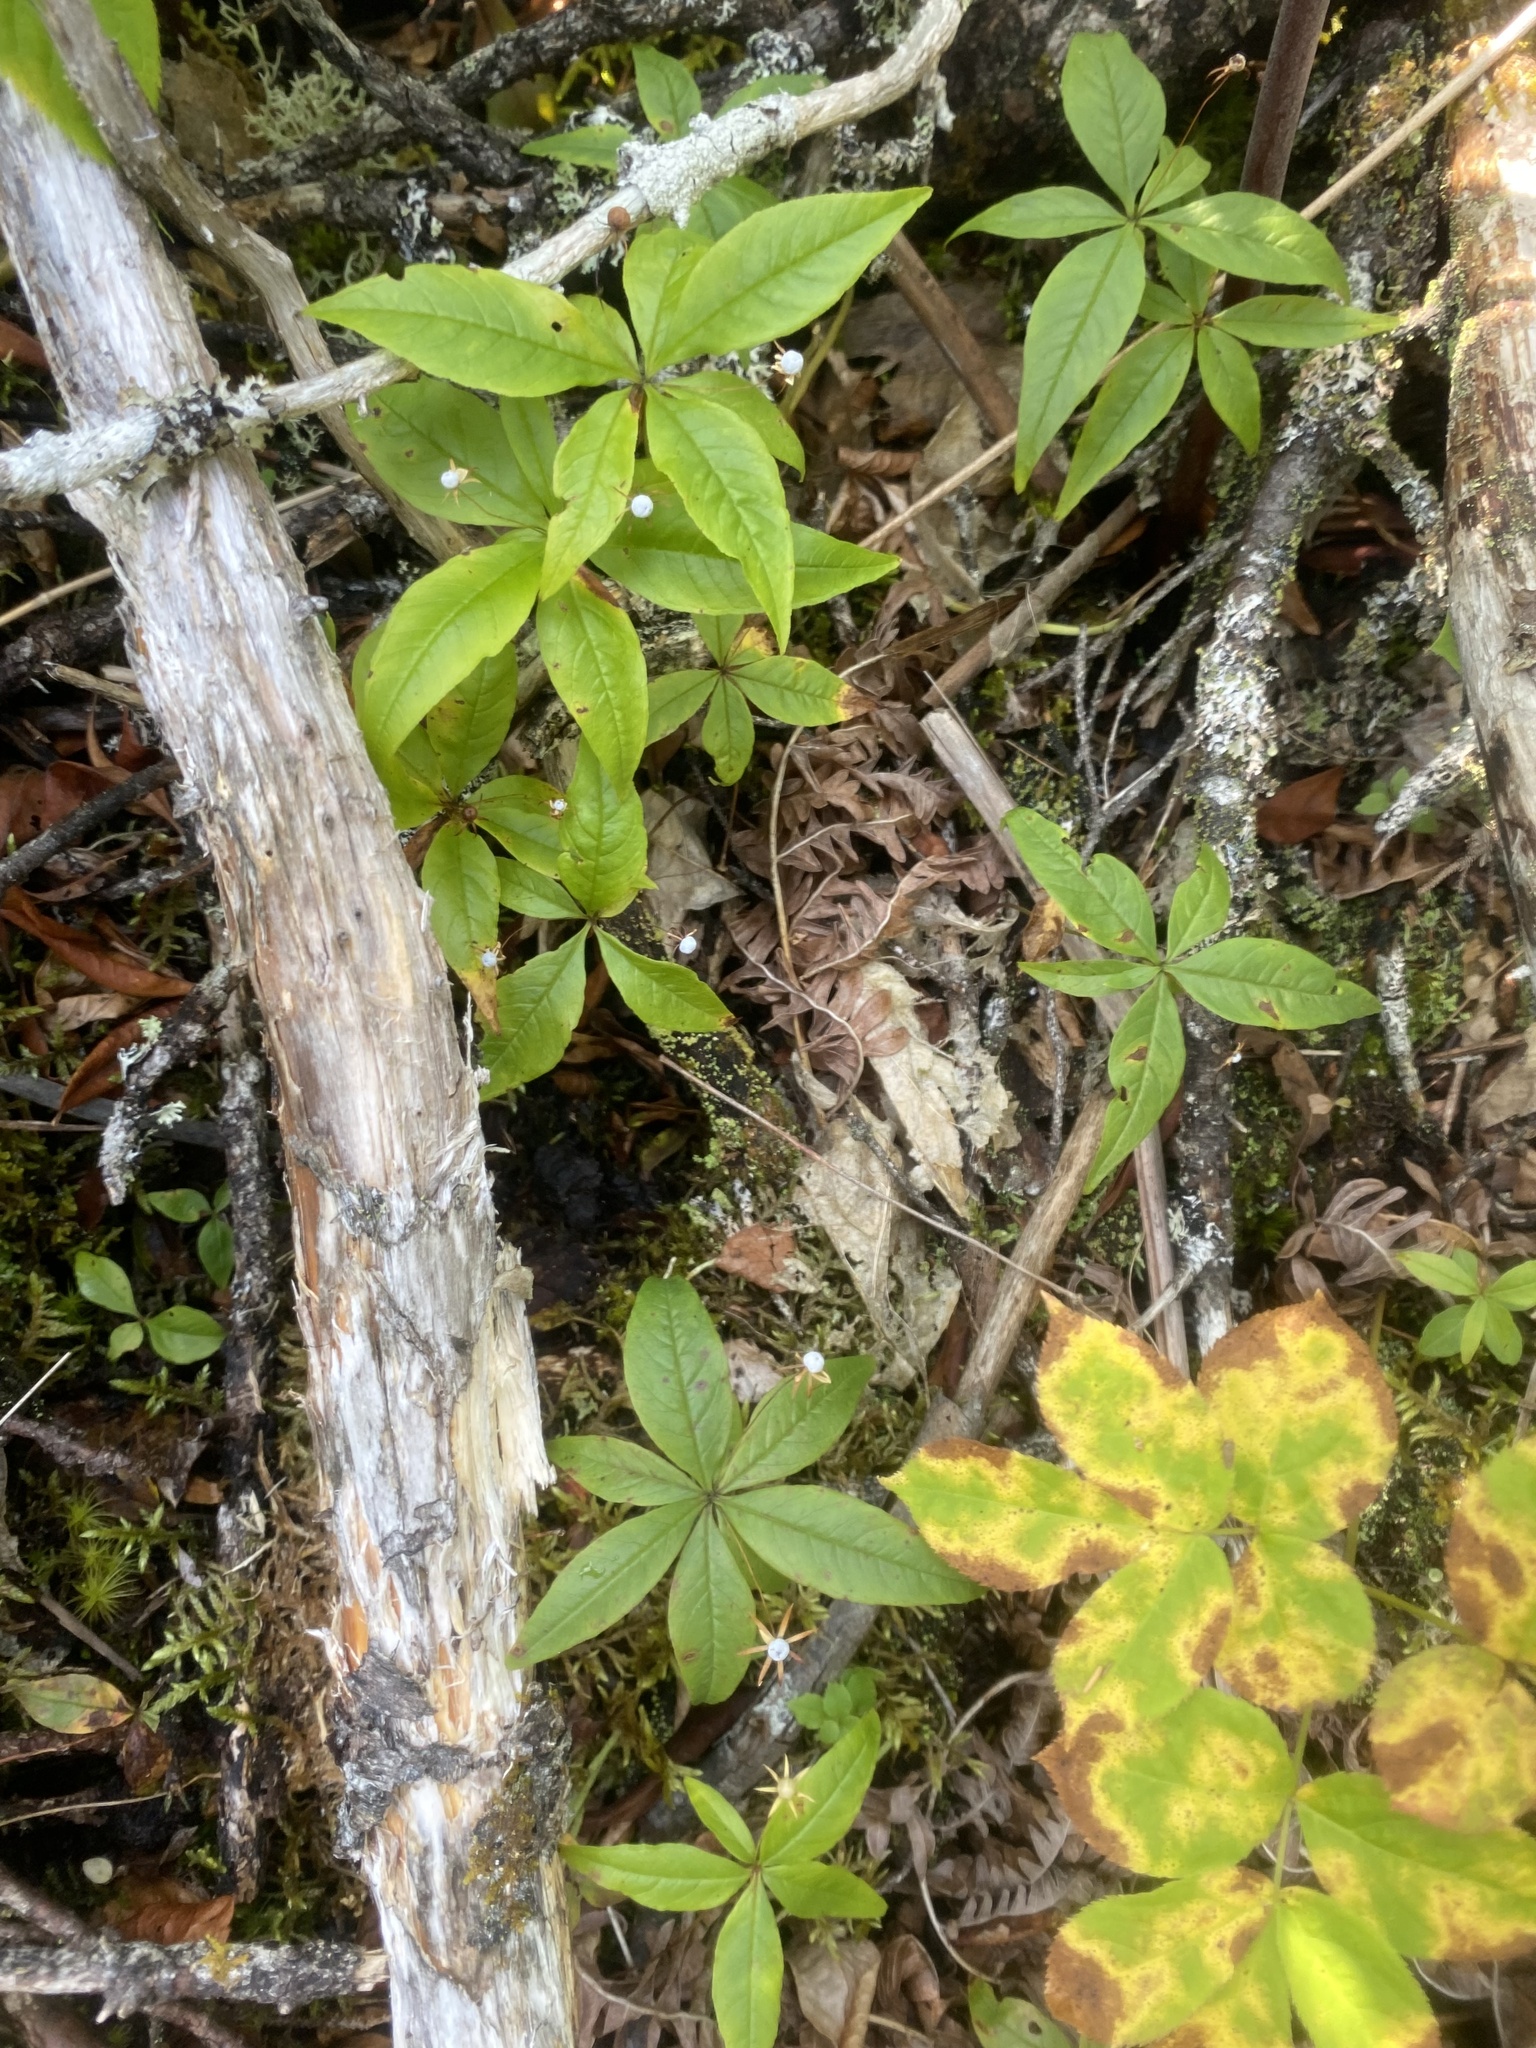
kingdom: Plantae
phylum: Tracheophyta
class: Magnoliopsida
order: Ericales
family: Primulaceae
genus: Lysimachia
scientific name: Lysimachia borealis
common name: American starflower
